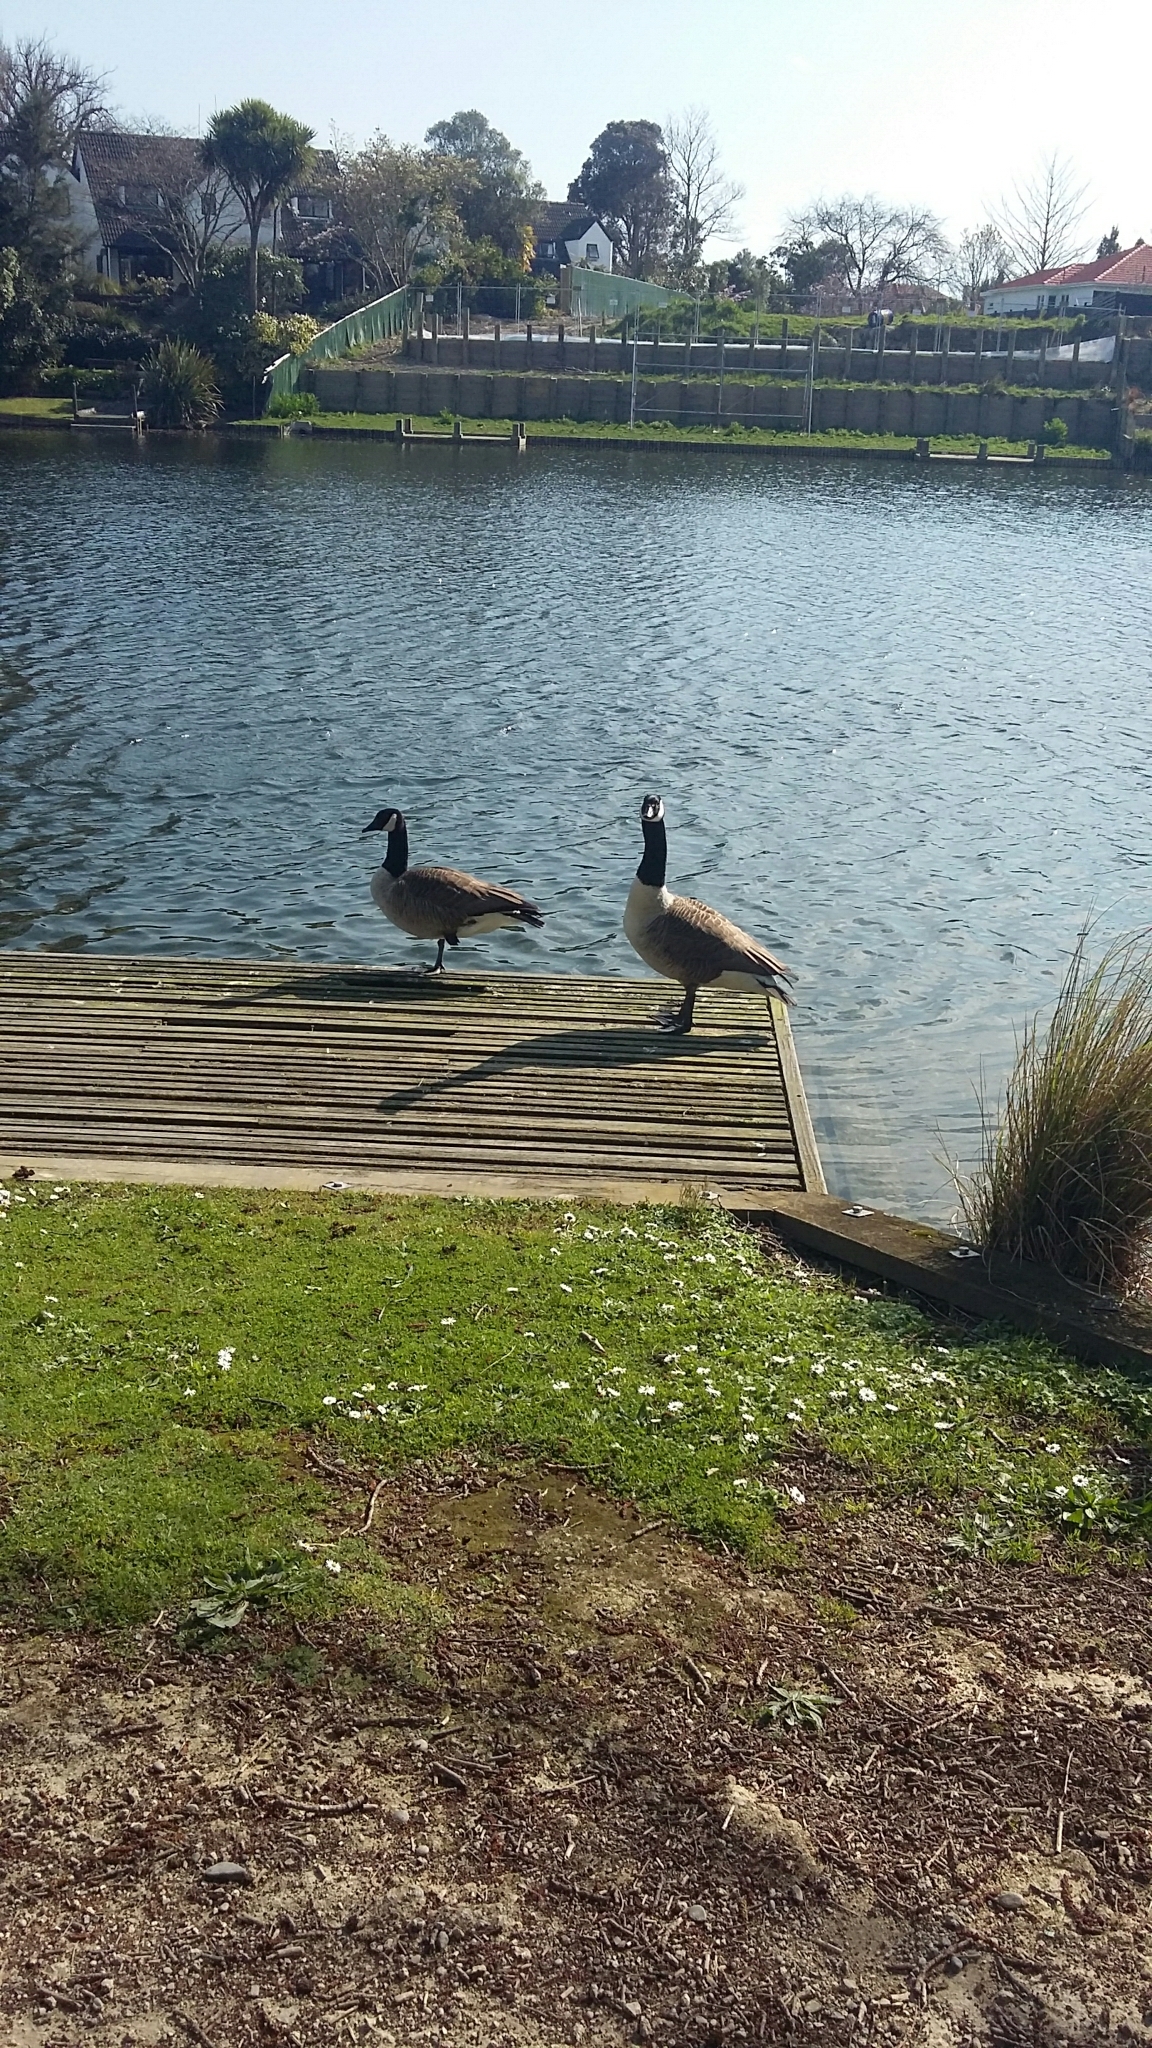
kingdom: Animalia
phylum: Chordata
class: Aves
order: Anseriformes
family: Anatidae
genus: Branta
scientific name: Branta canadensis
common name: Canada goose
